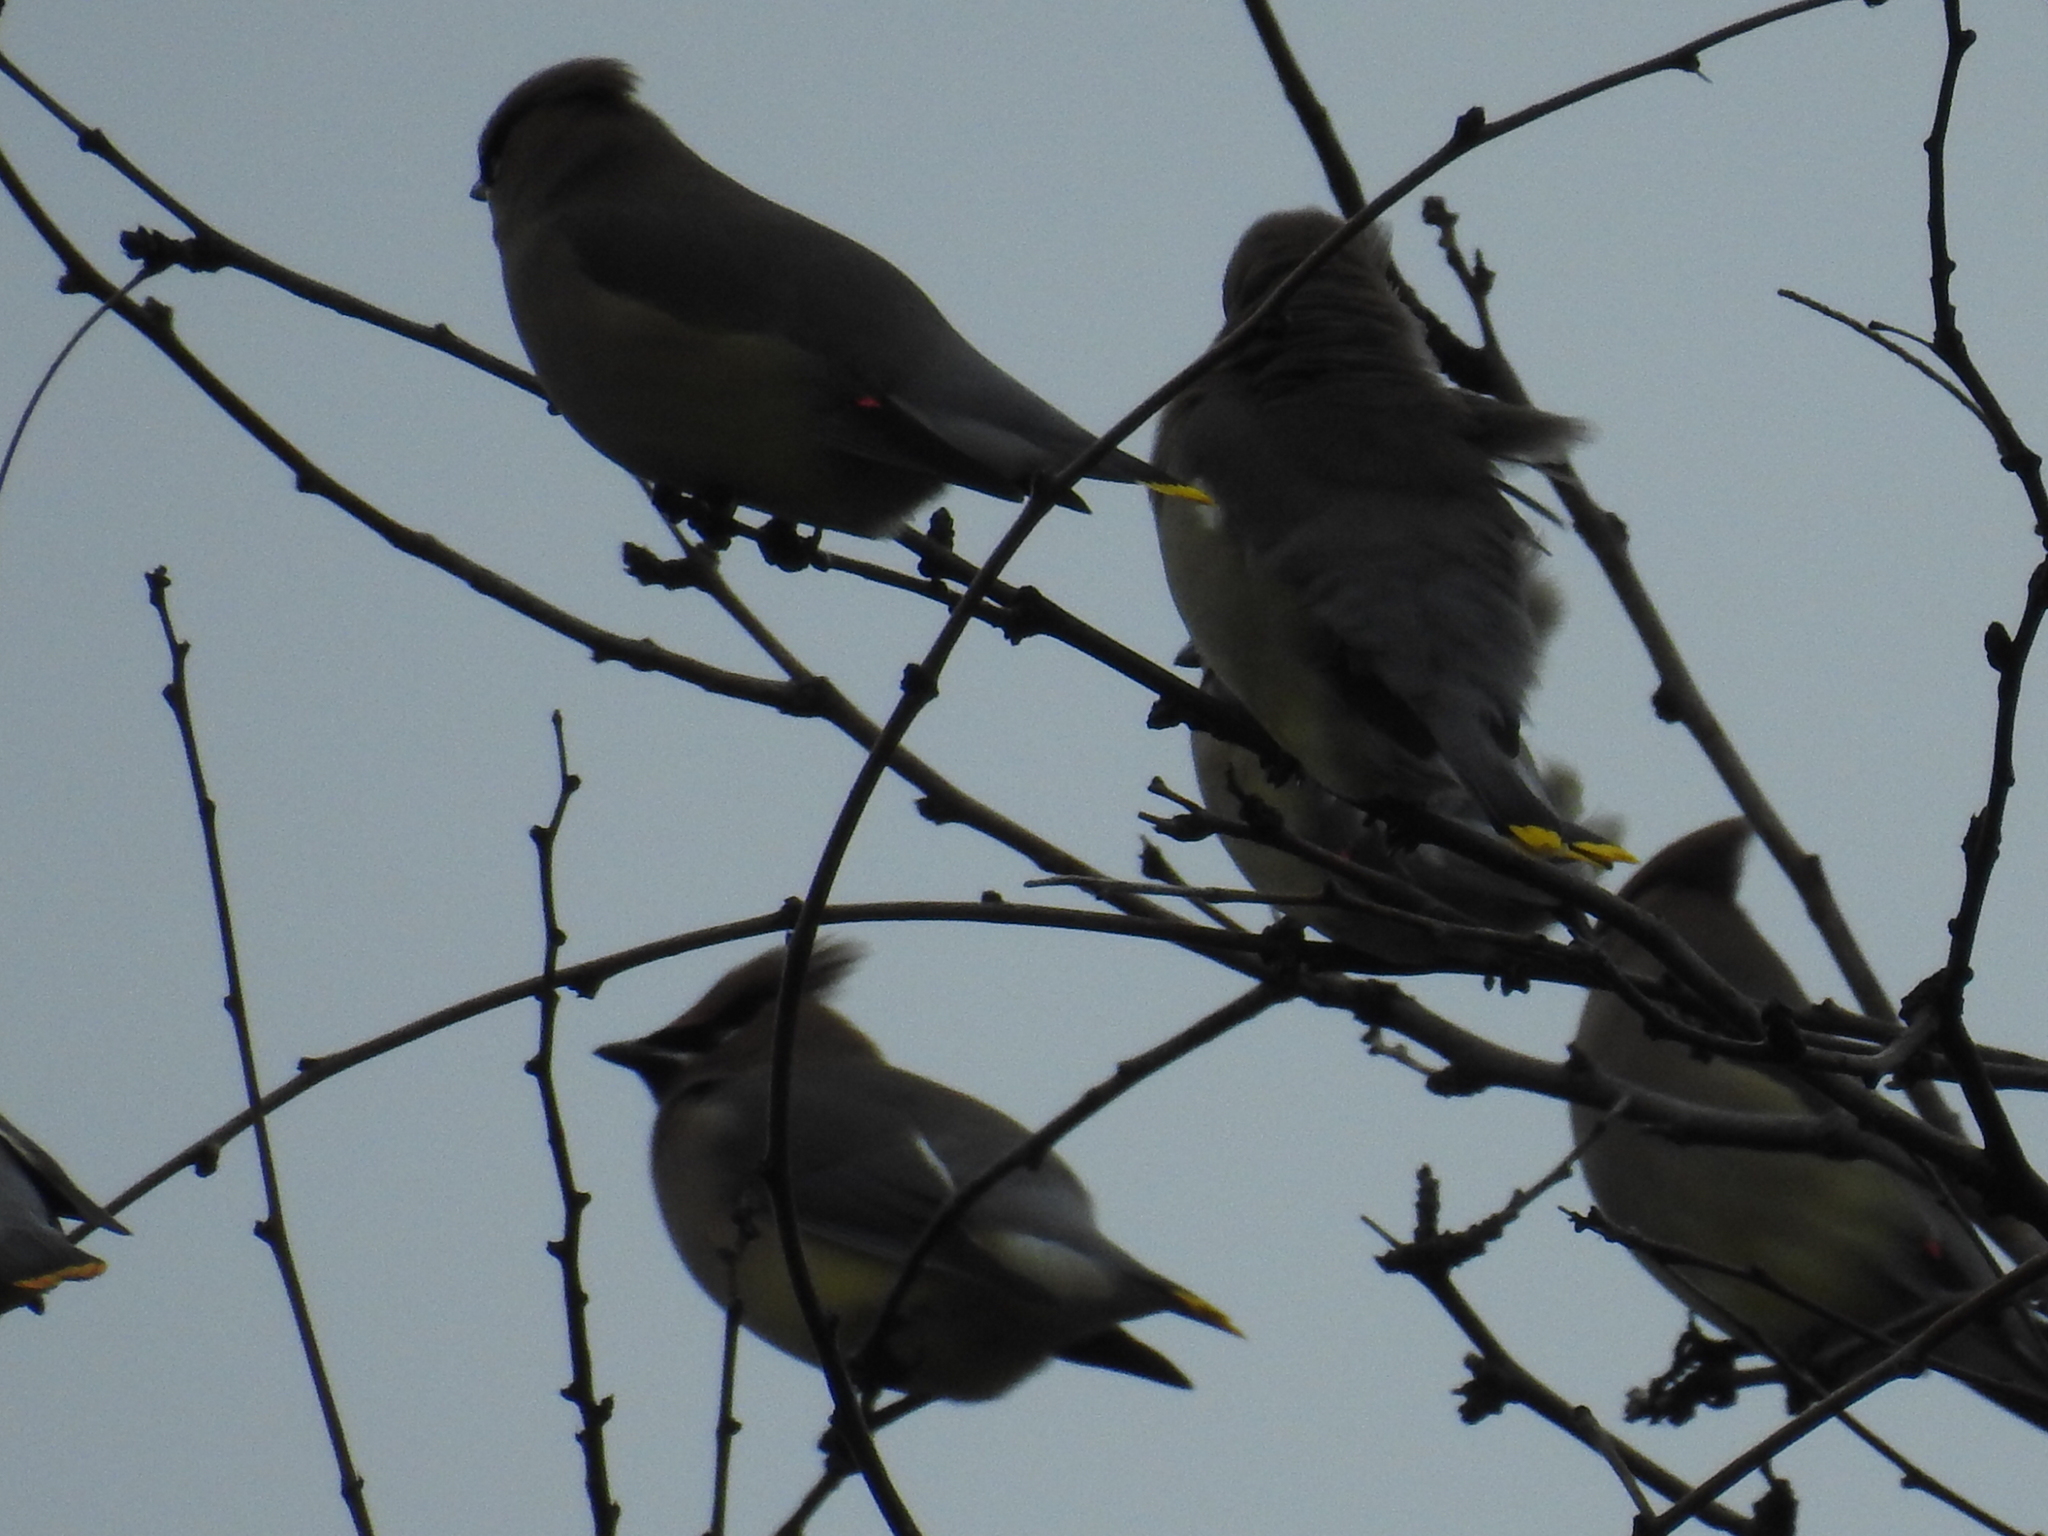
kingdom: Animalia
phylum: Chordata
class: Aves
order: Passeriformes
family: Bombycillidae
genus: Bombycilla
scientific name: Bombycilla cedrorum
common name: Cedar waxwing
